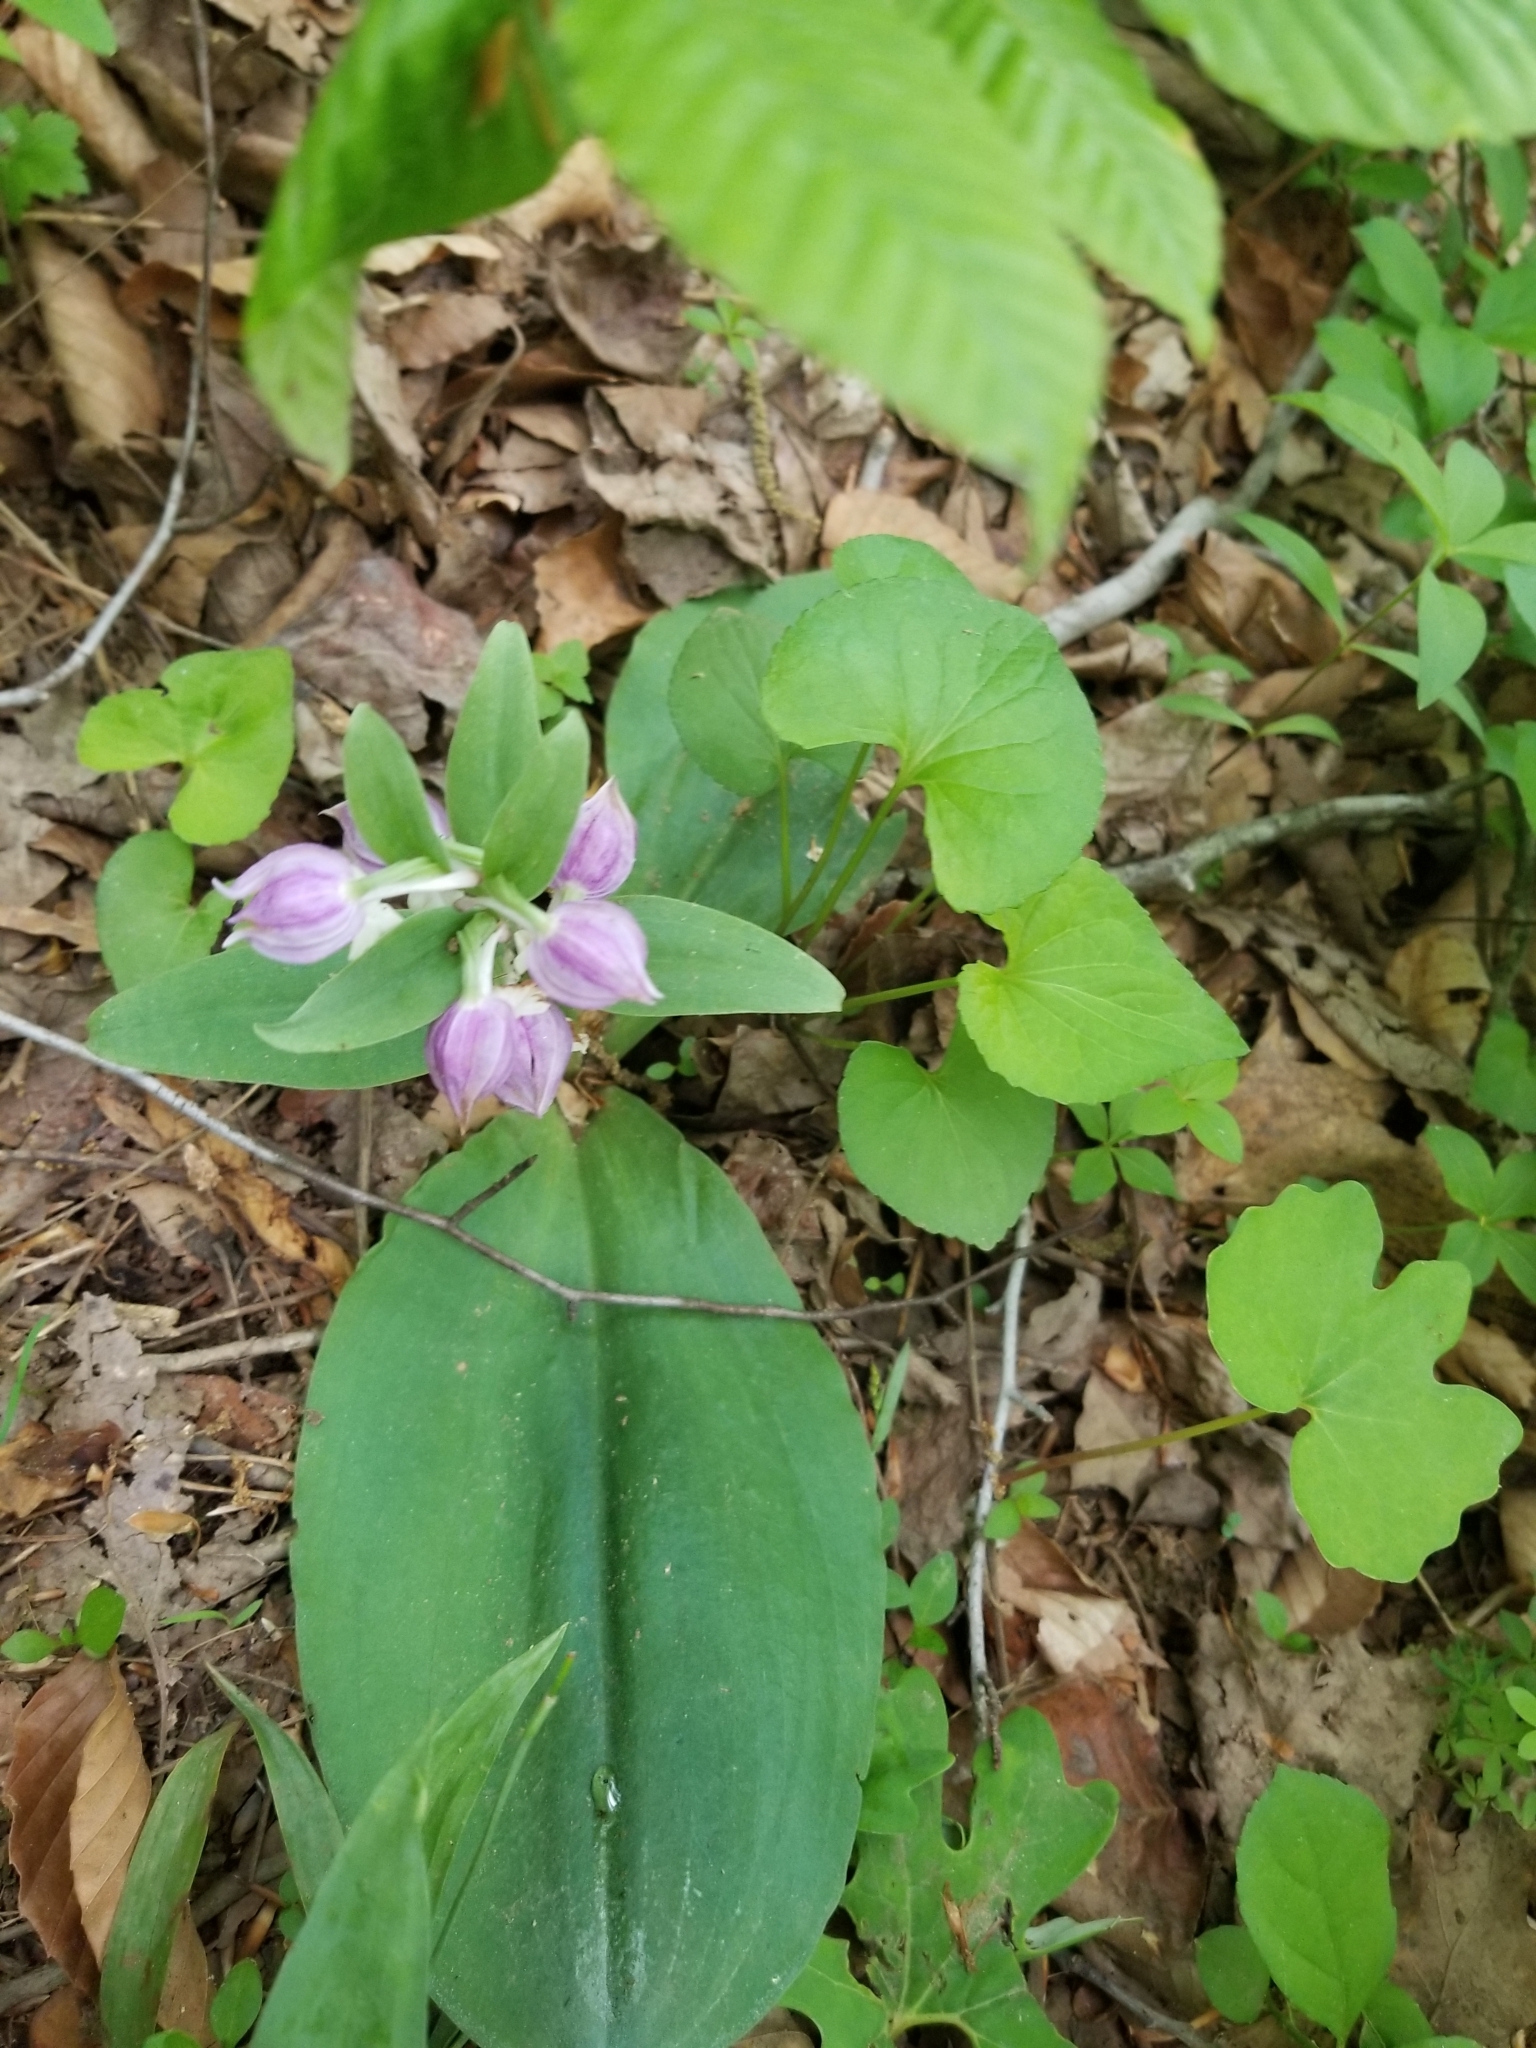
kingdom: Plantae
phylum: Tracheophyta
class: Liliopsida
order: Asparagales
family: Orchidaceae
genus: Galearis
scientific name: Galearis spectabilis
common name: Purple-hooded orchis
